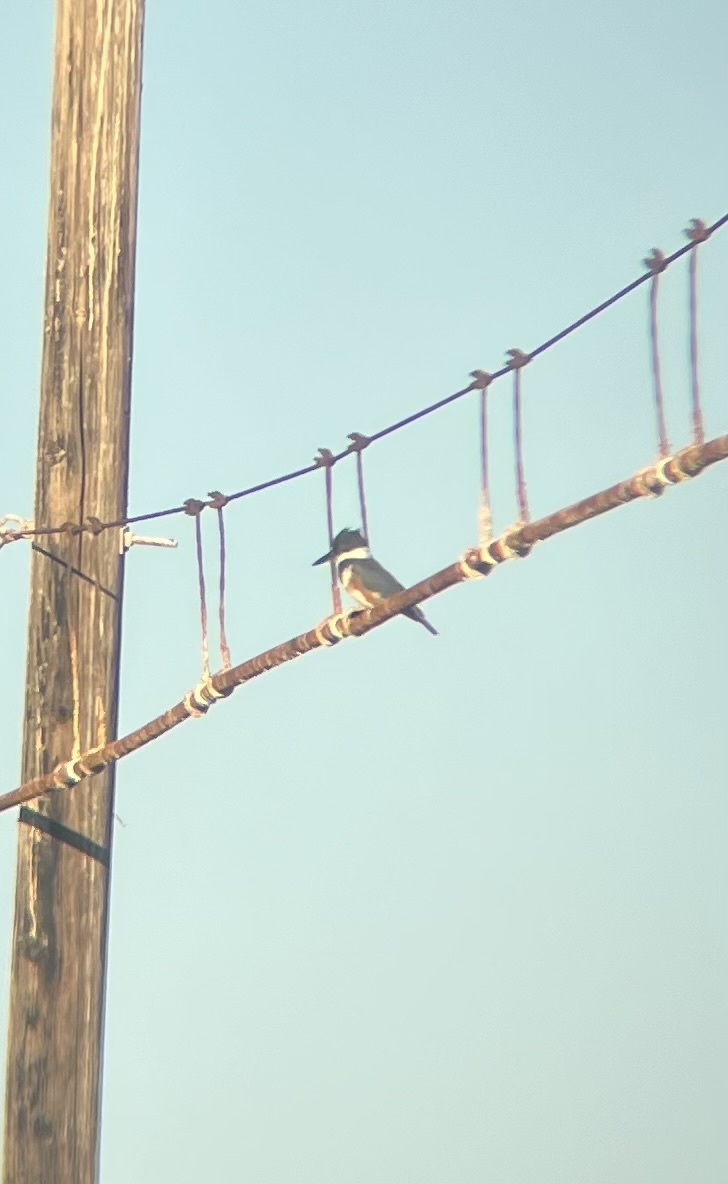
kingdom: Animalia
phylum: Chordata
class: Aves
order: Coraciiformes
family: Alcedinidae
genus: Megaceryle
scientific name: Megaceryle alcyon
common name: Belted kingfisher
